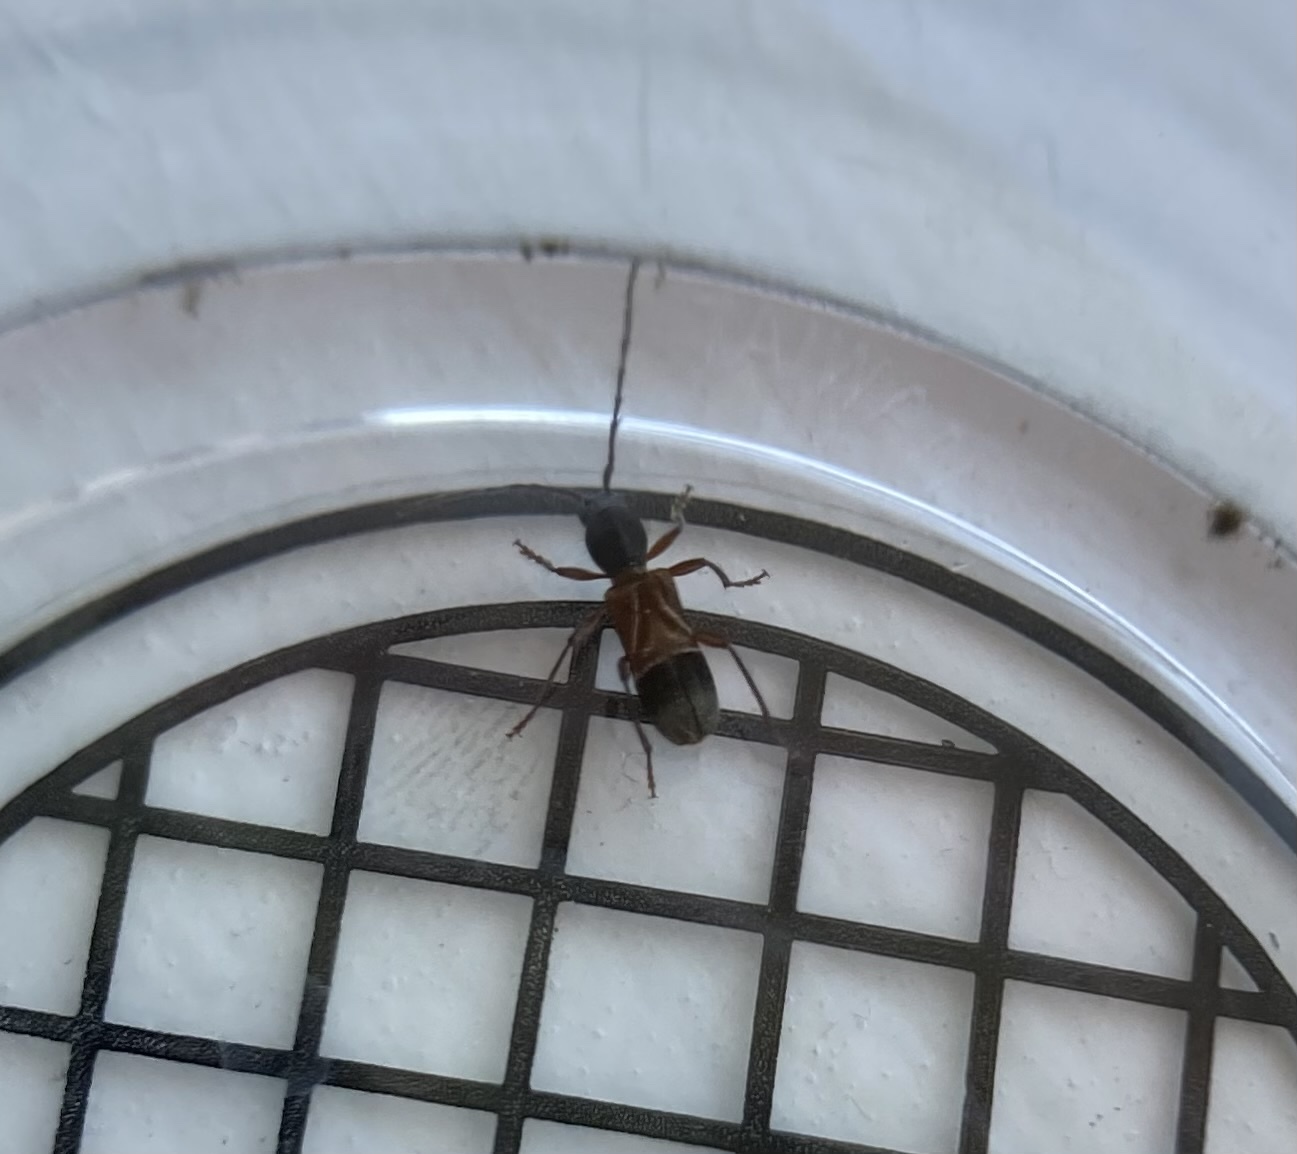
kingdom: Animalia
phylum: Arthropoda
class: Insecta
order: Coleoptera
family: Cerambycidae
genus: Cyrtophorus
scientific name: Cyrtophorus verrucosus
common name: Ant-like longhorn beetle
